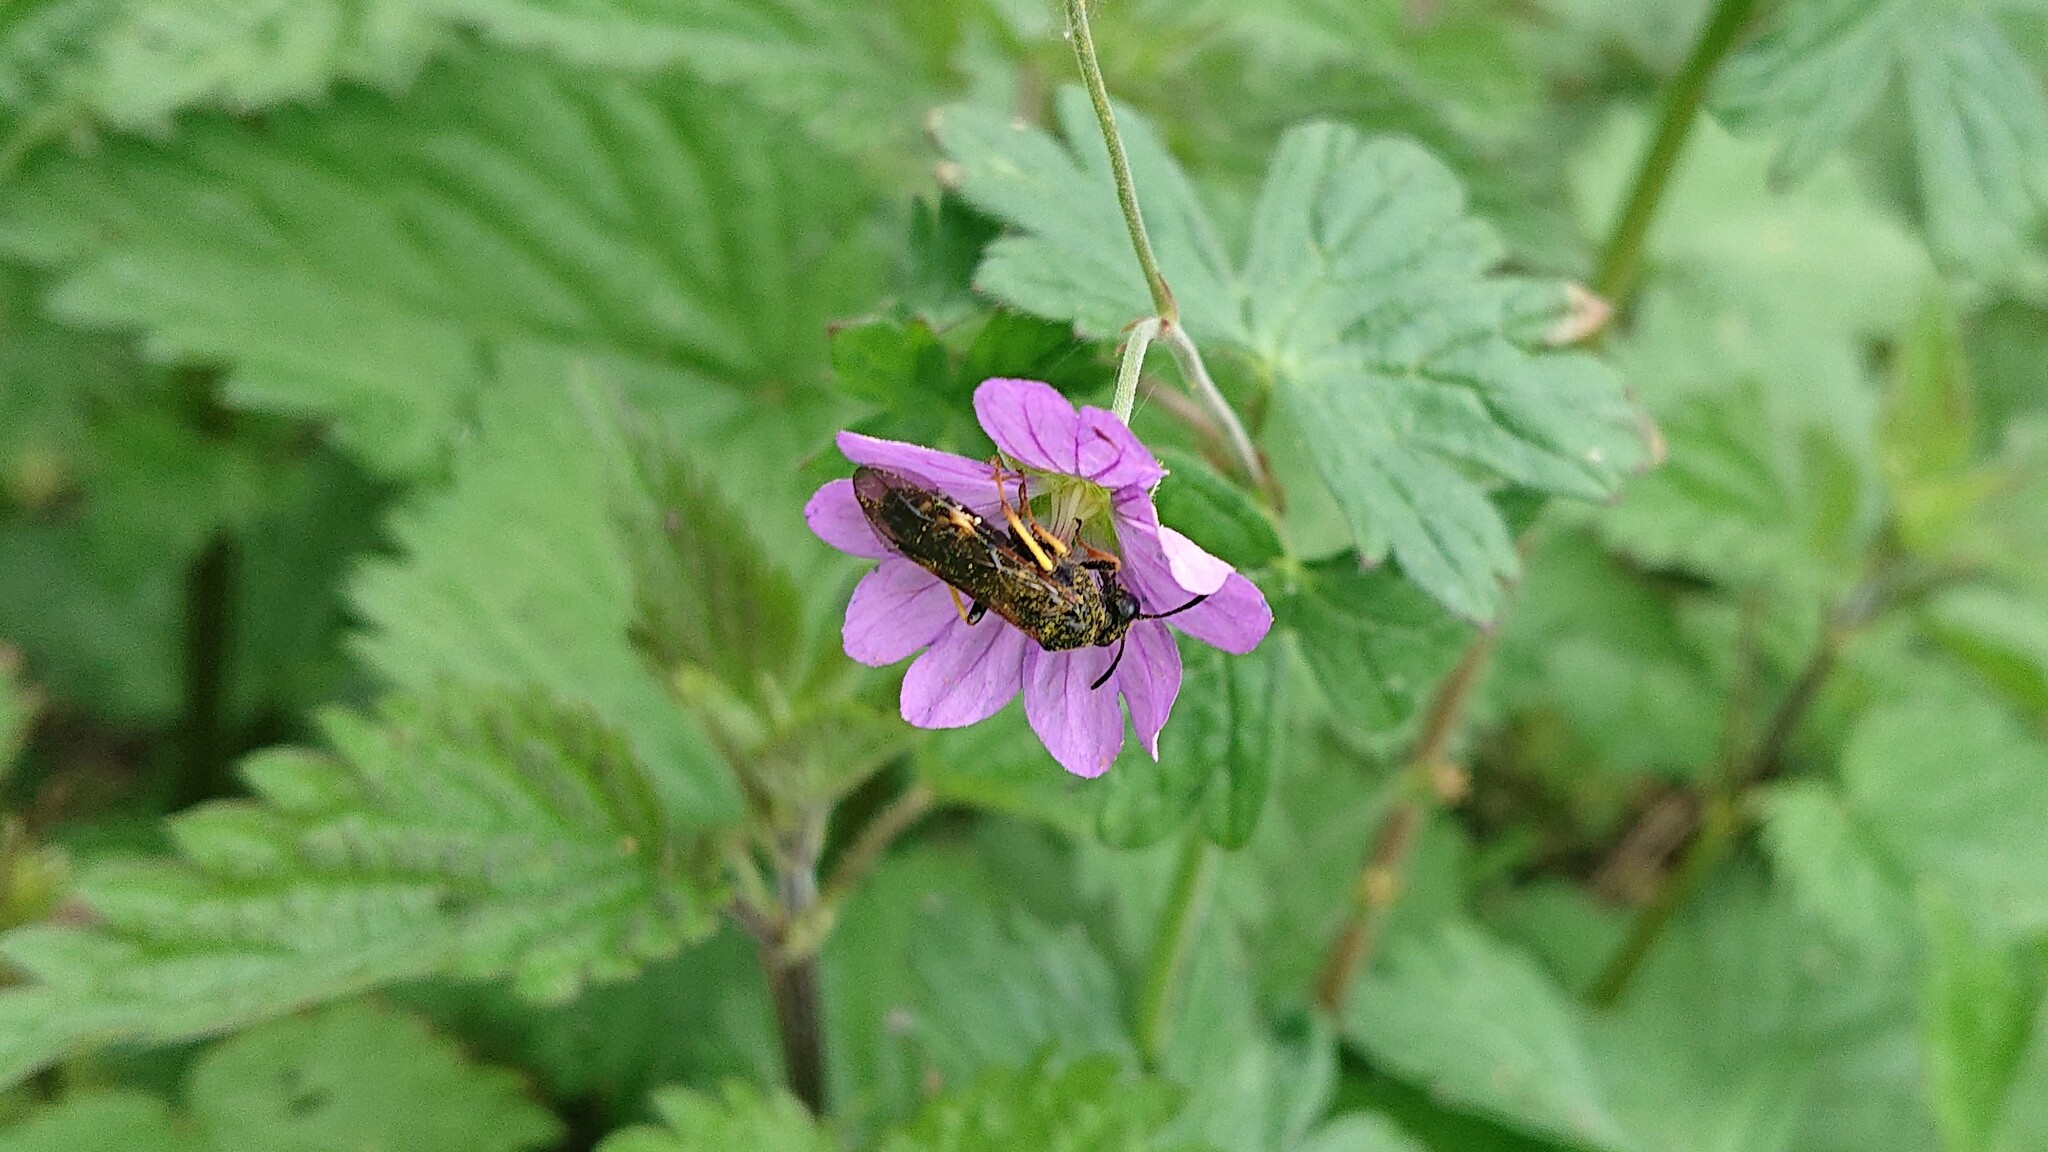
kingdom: Animalia
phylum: Arthropoda
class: Insecta
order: Hymenoptera
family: Tenthredinidae
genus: Tenthredo
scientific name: Tenthredo koehleri
